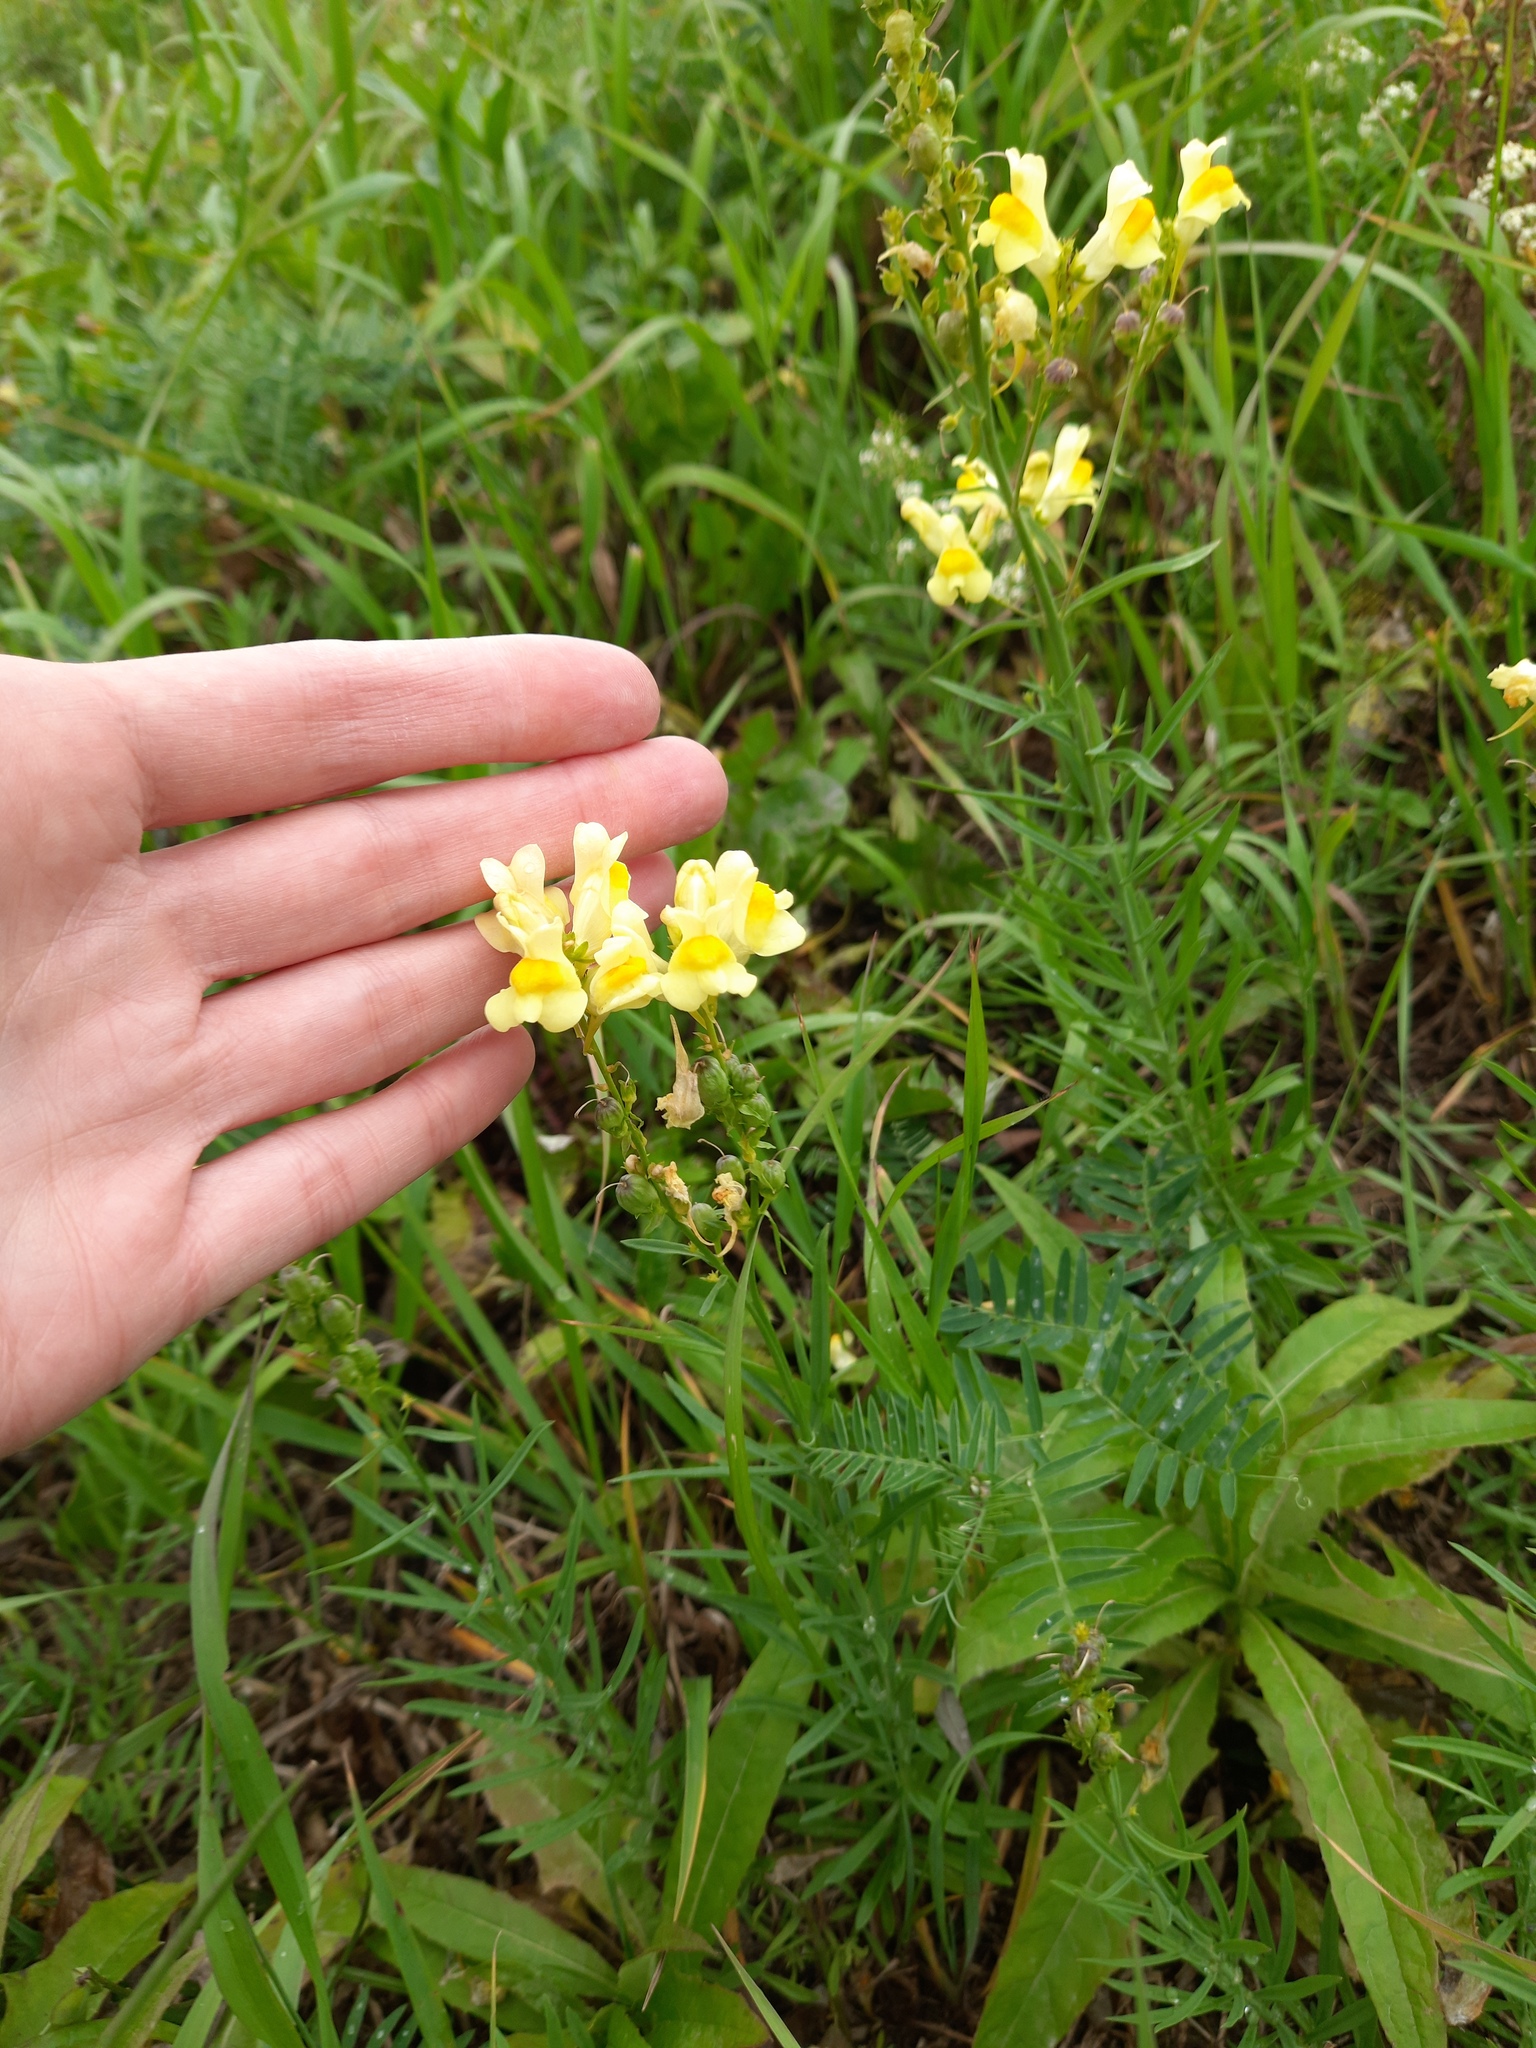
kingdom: Plantae
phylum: Tracheophyta
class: Magnoliopsida
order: Lamiales
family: Plantaginaceae
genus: Linaria
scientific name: Linaria vulgaris
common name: Butter and eggs
